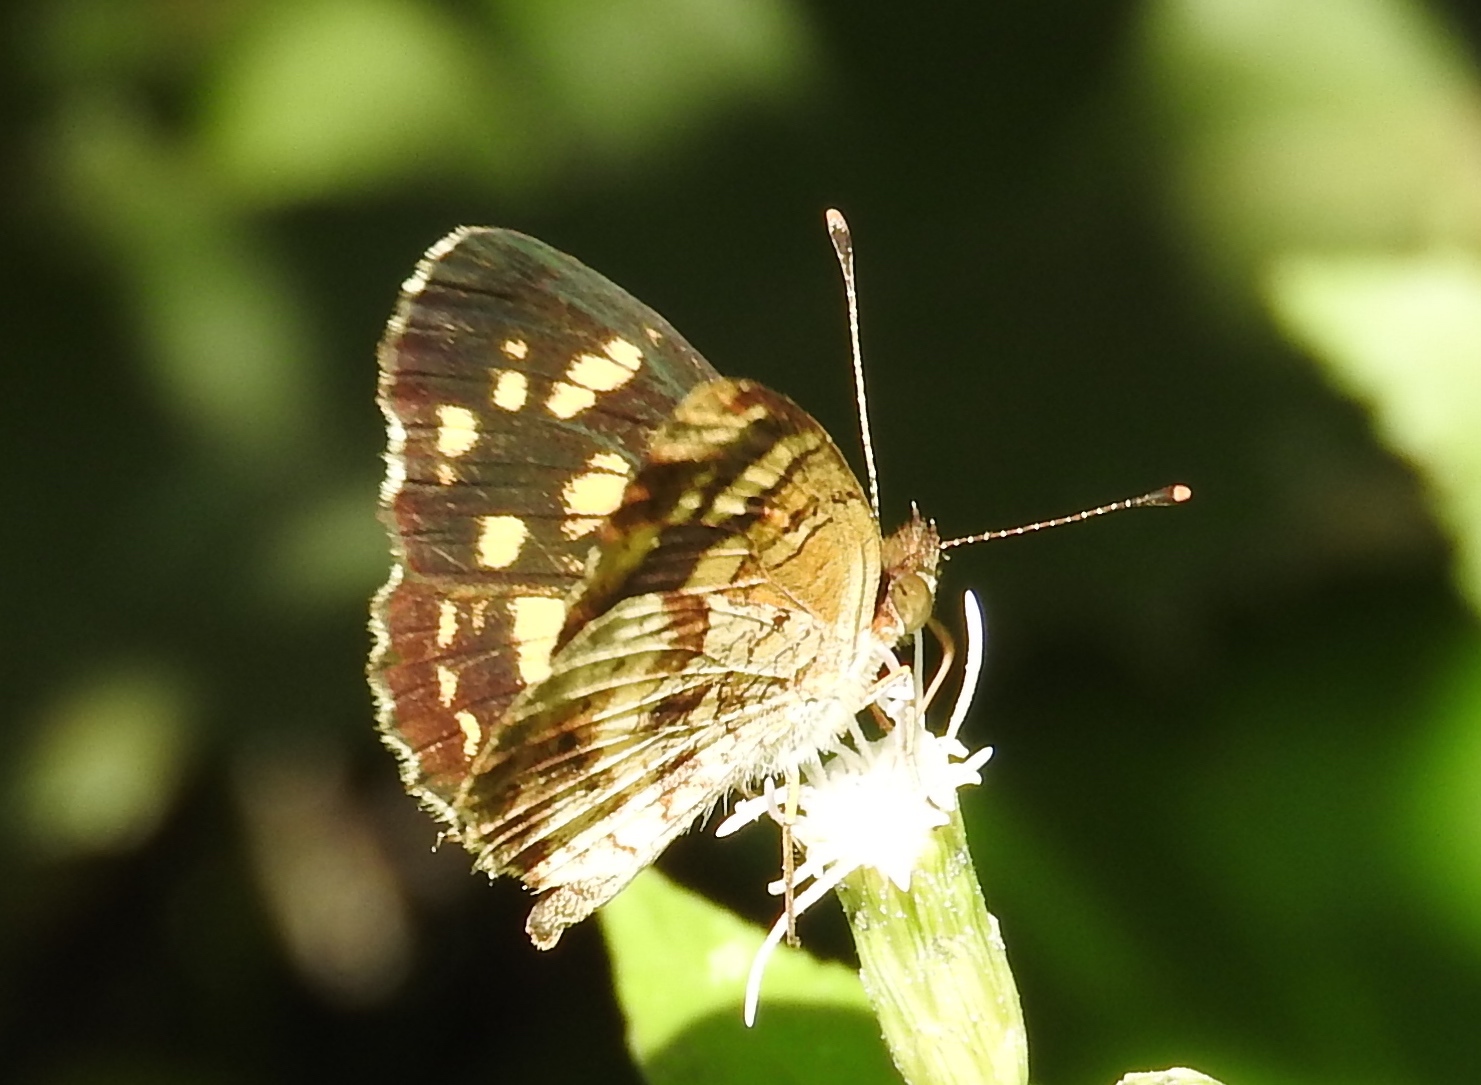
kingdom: Animalia
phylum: Arthropoda
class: Insecta
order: Lepidoptera
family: Nymphalidae
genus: Anthanassa
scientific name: Anthanassa tulcis
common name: Pale-banded crescent
